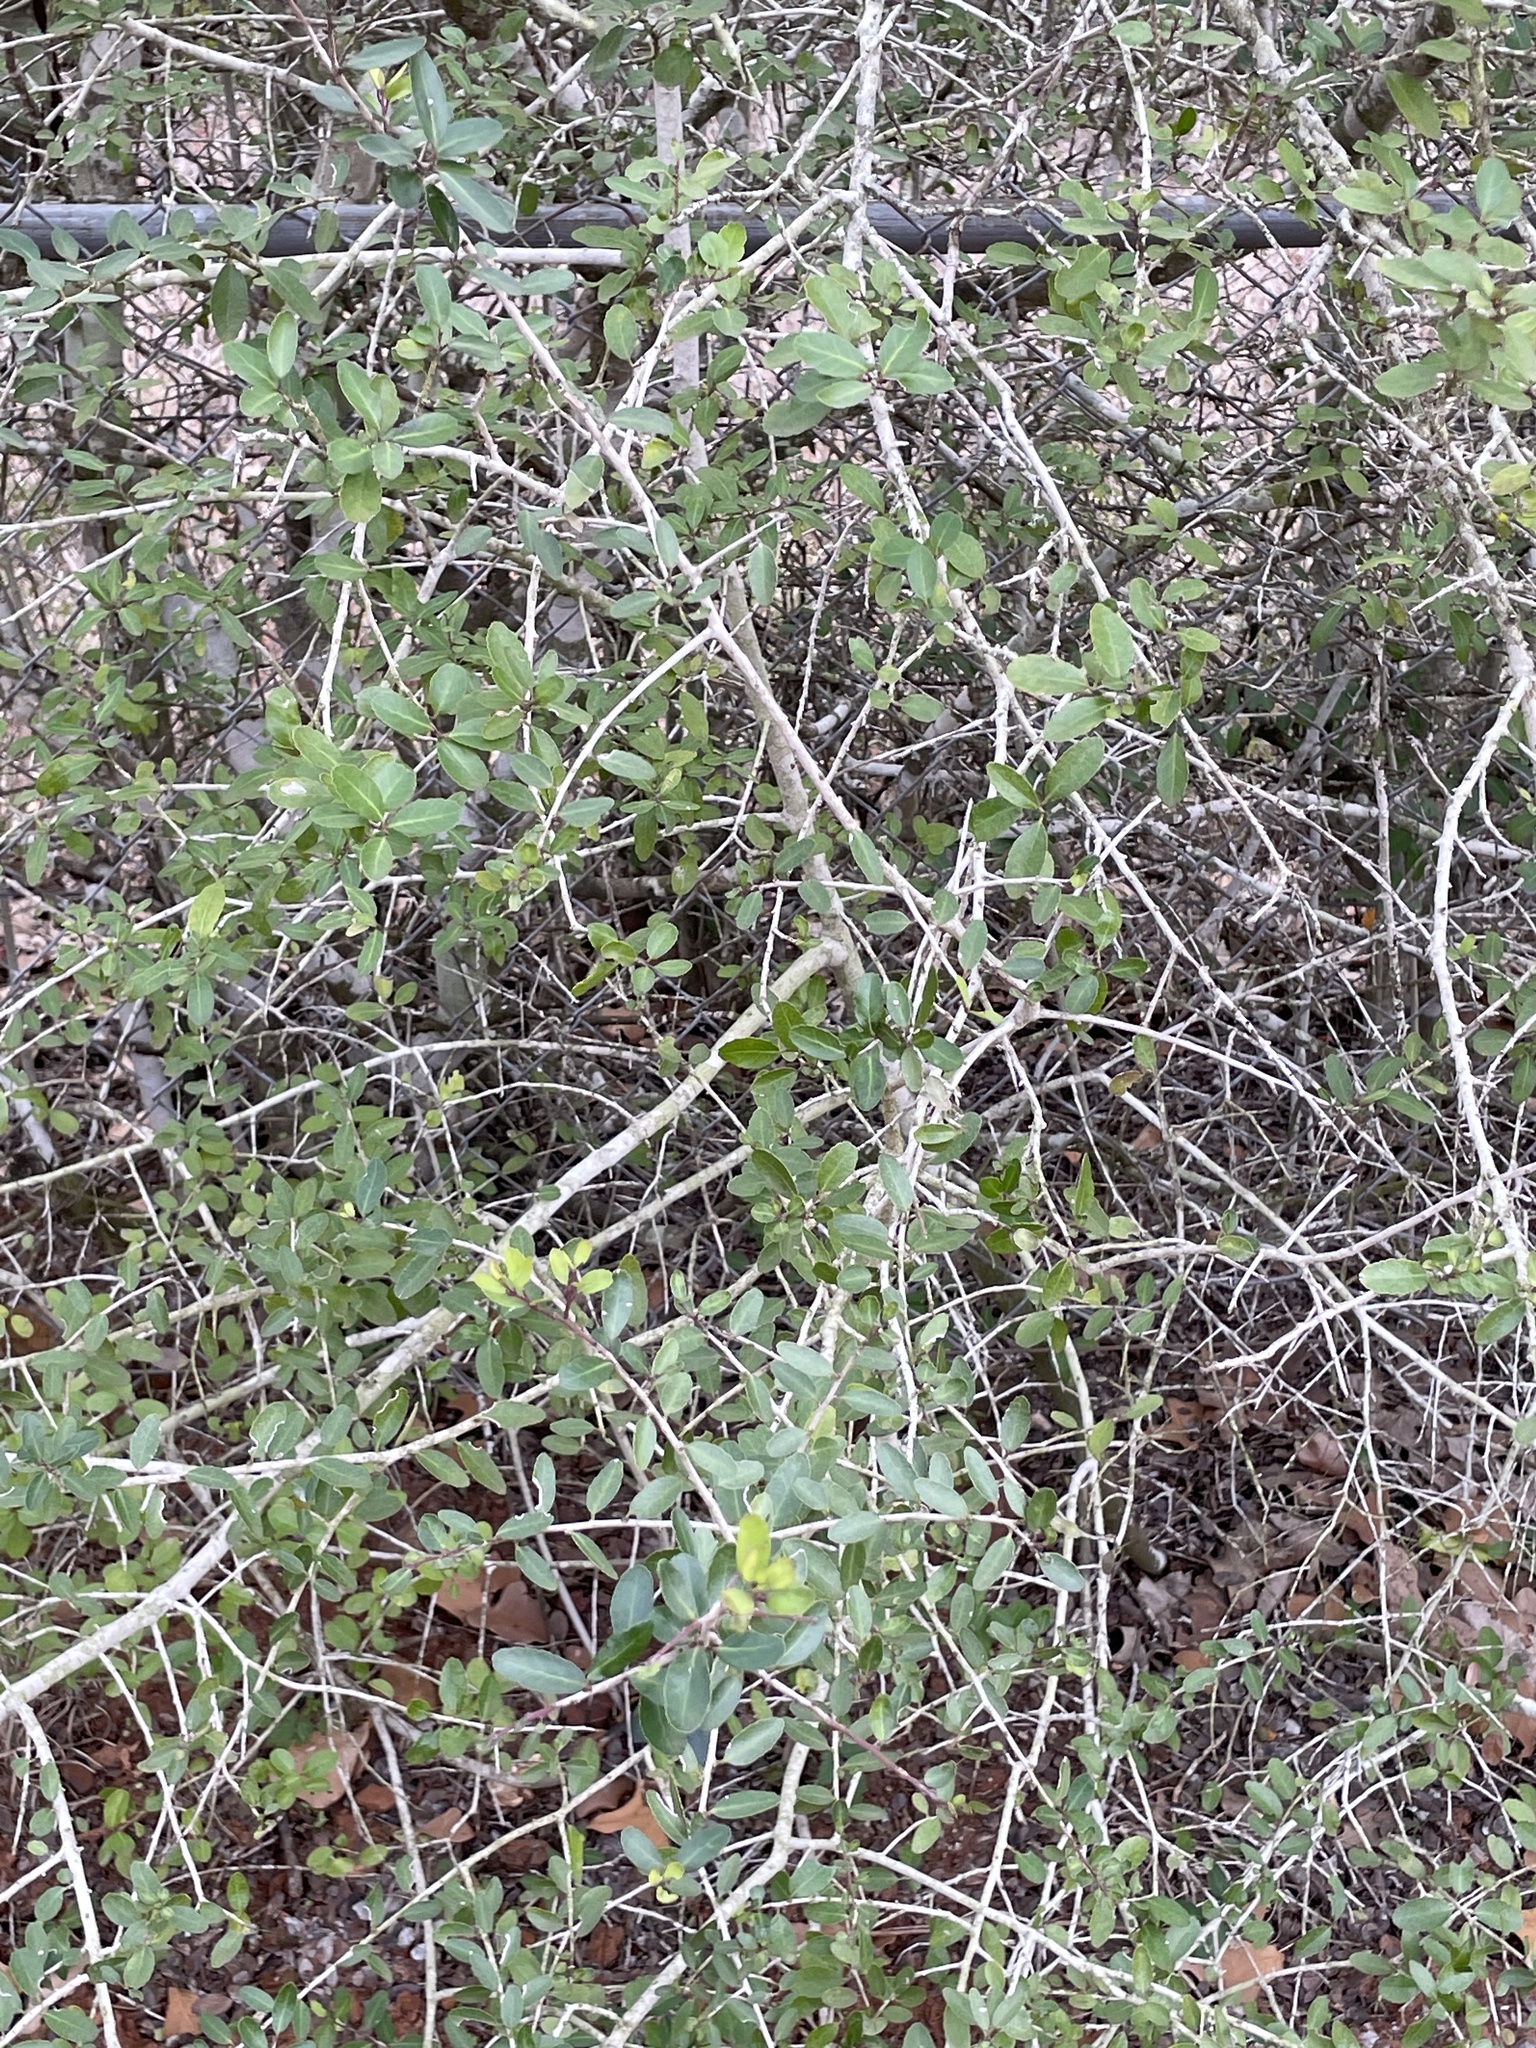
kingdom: Plantae
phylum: Tracheophyta
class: Magnoliopsida
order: Aquifoliales
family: Aquifoliaceae
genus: Ilex
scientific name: Ilex vomitoria
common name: Yaupon holly
